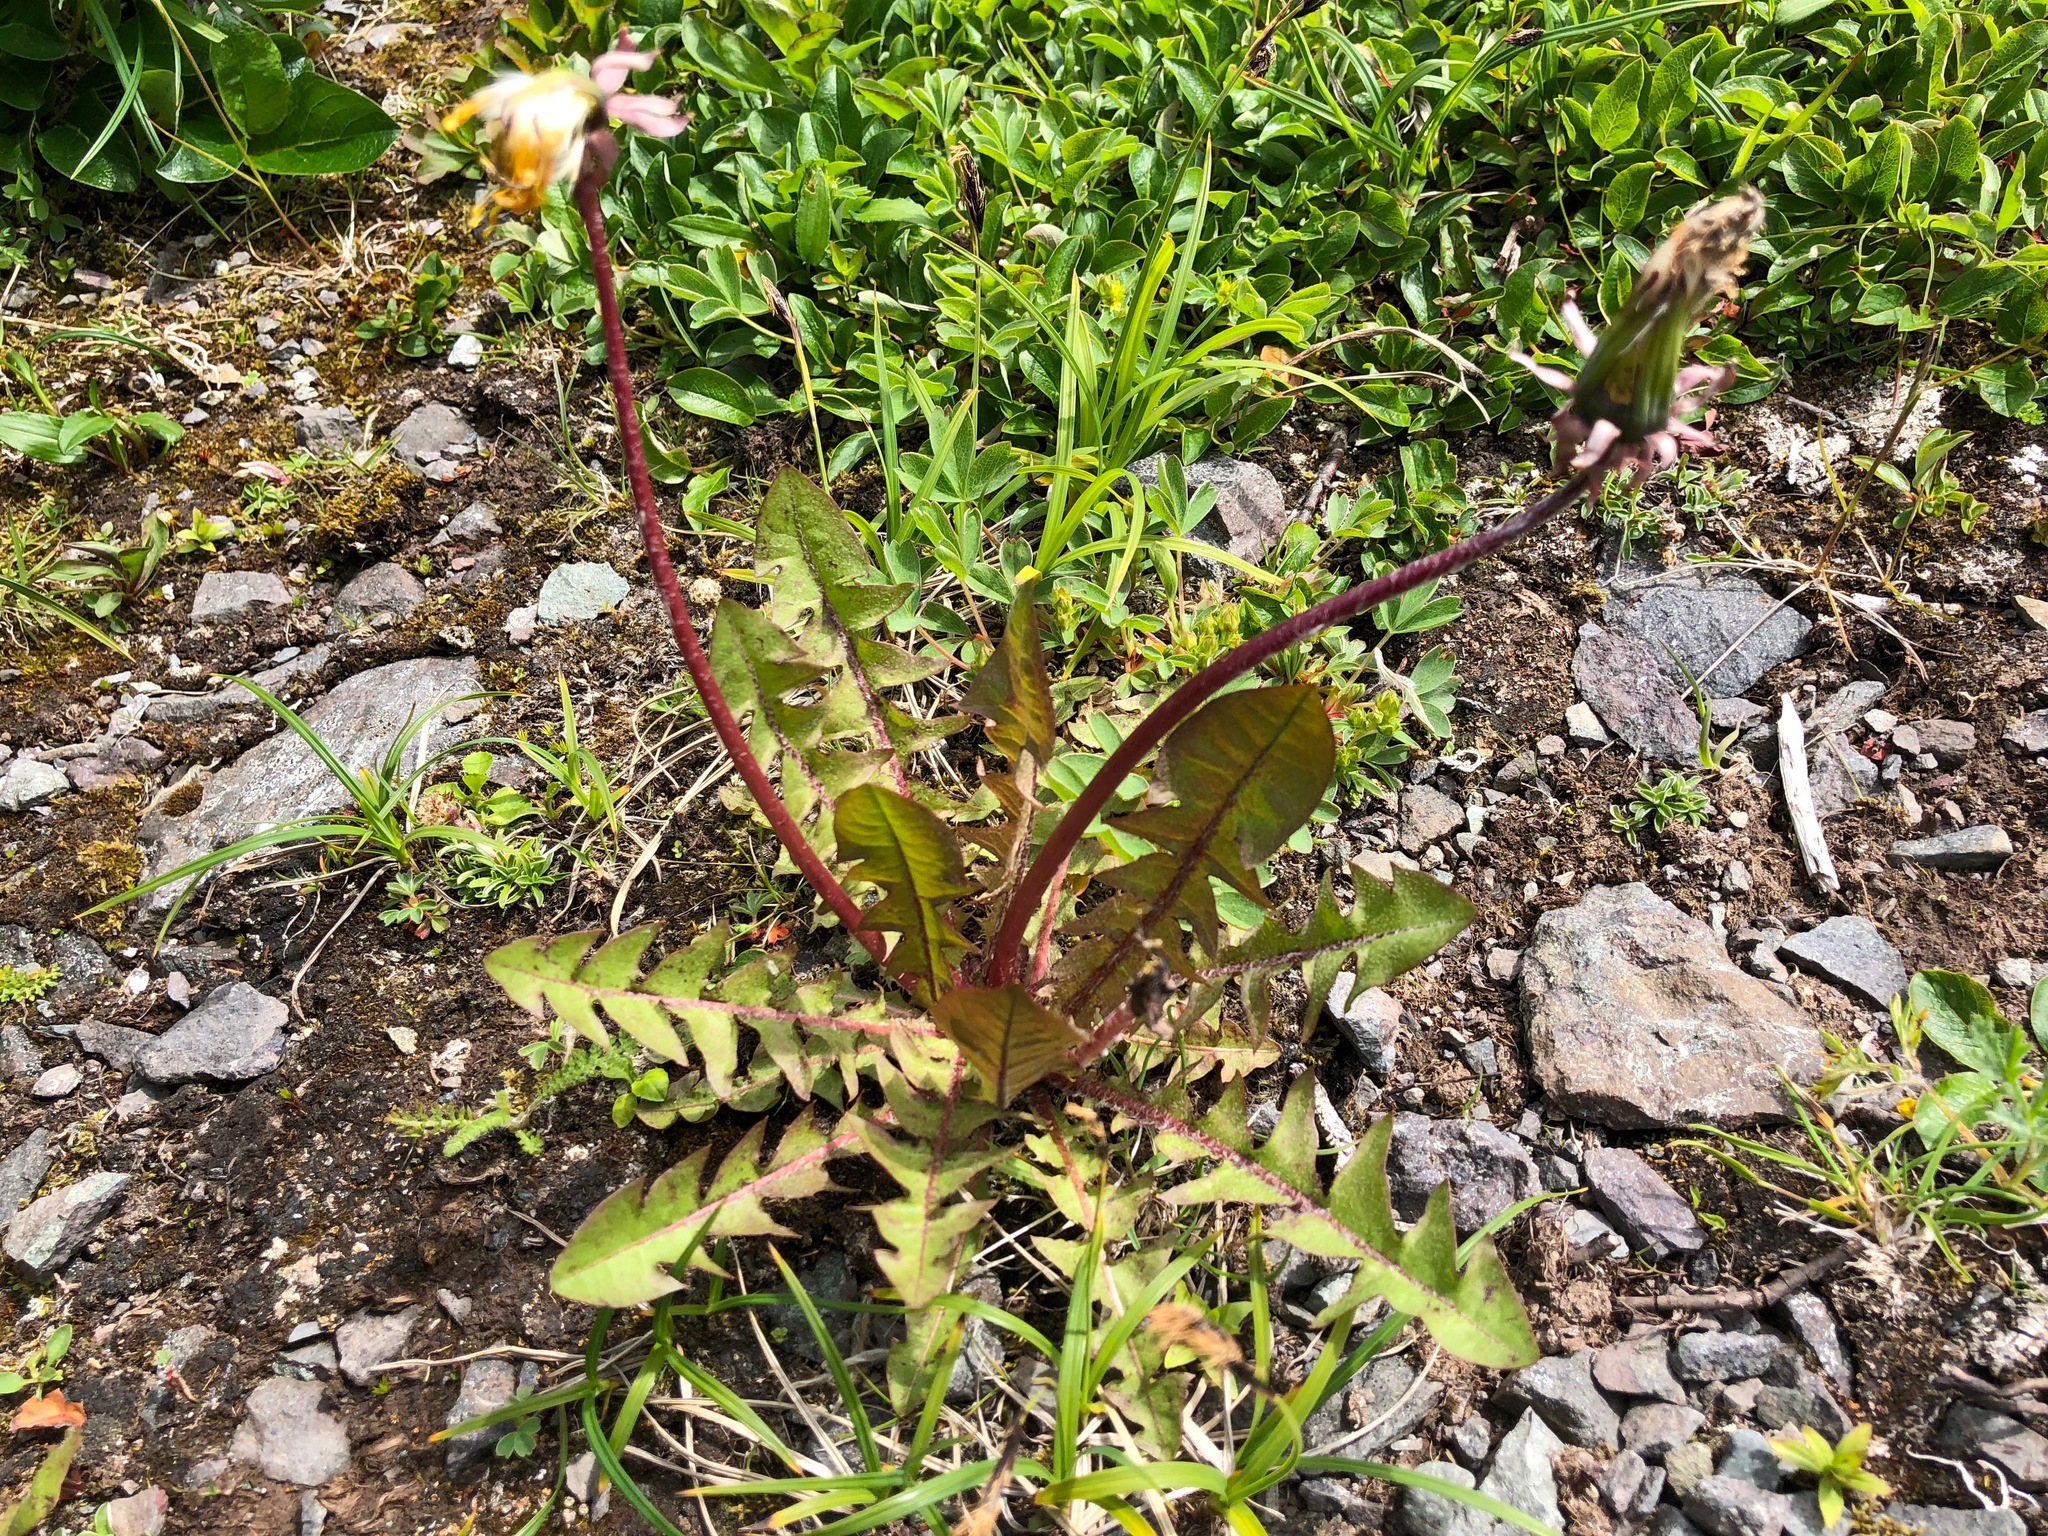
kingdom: Plantae
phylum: Tracheophyta
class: Magnoliopsida
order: Asterales
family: Asteraceae
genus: Taraxacum
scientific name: Taraxacum officinale
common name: Common dandelion
